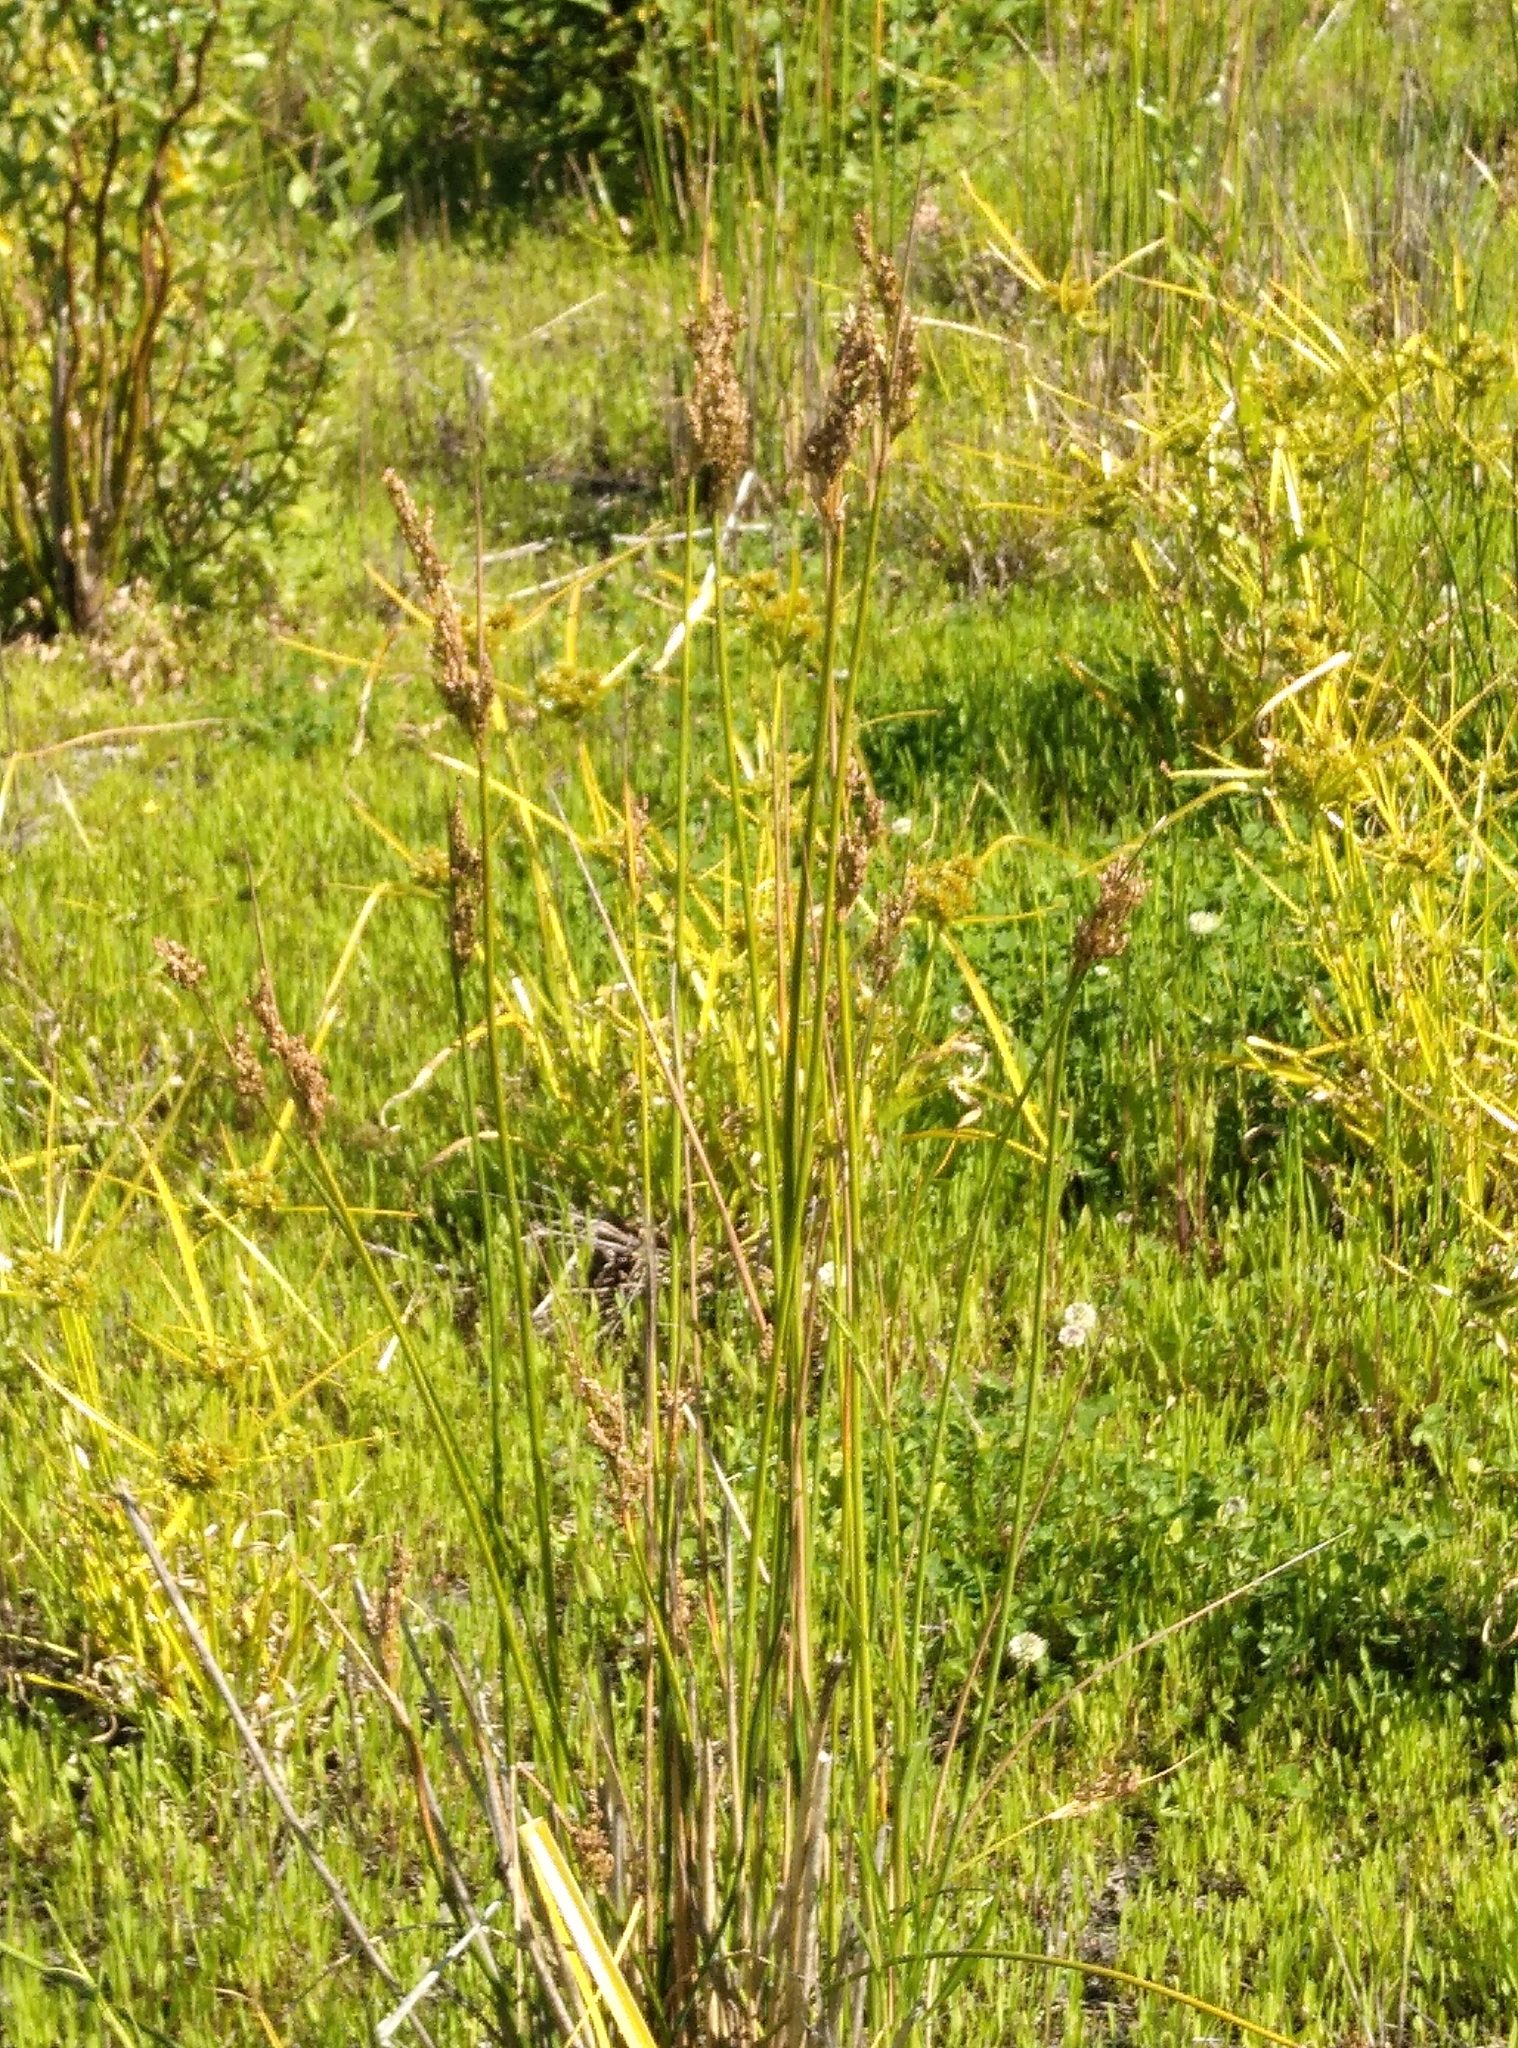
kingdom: Plantae
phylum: Tracheophyta
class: Liliopsida
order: Poales
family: Juncaceae
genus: Juncus
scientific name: Juncus pallidus
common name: Great soft-rush
